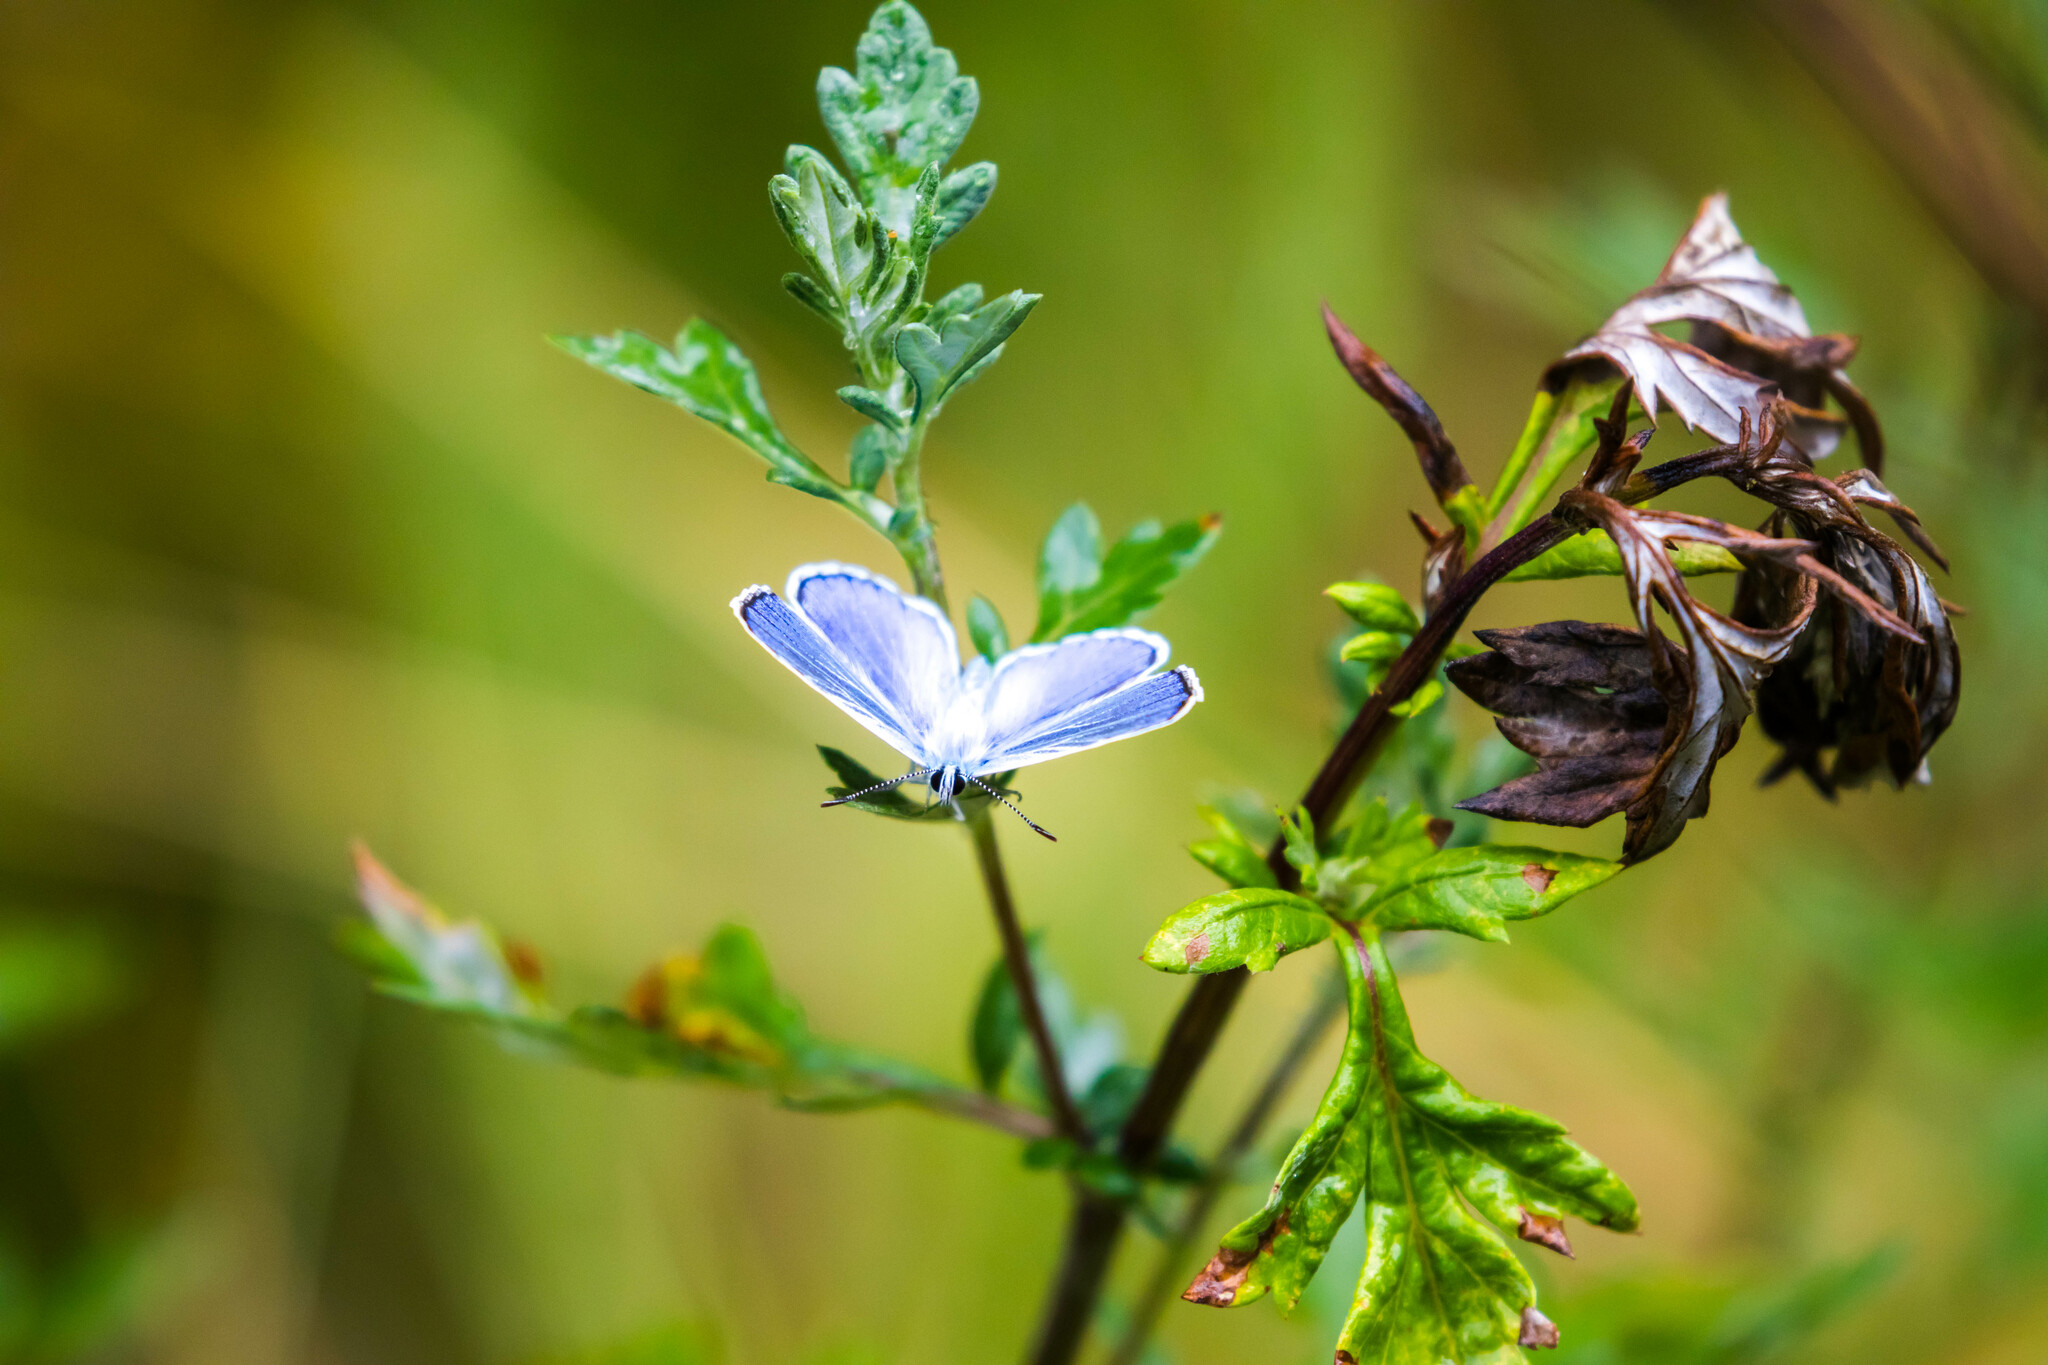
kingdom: Animalia
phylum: Arthropoda
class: Insecta
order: Lepidoptera
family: Lycaenidae
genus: Plebicula
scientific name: Plebicula escheri
